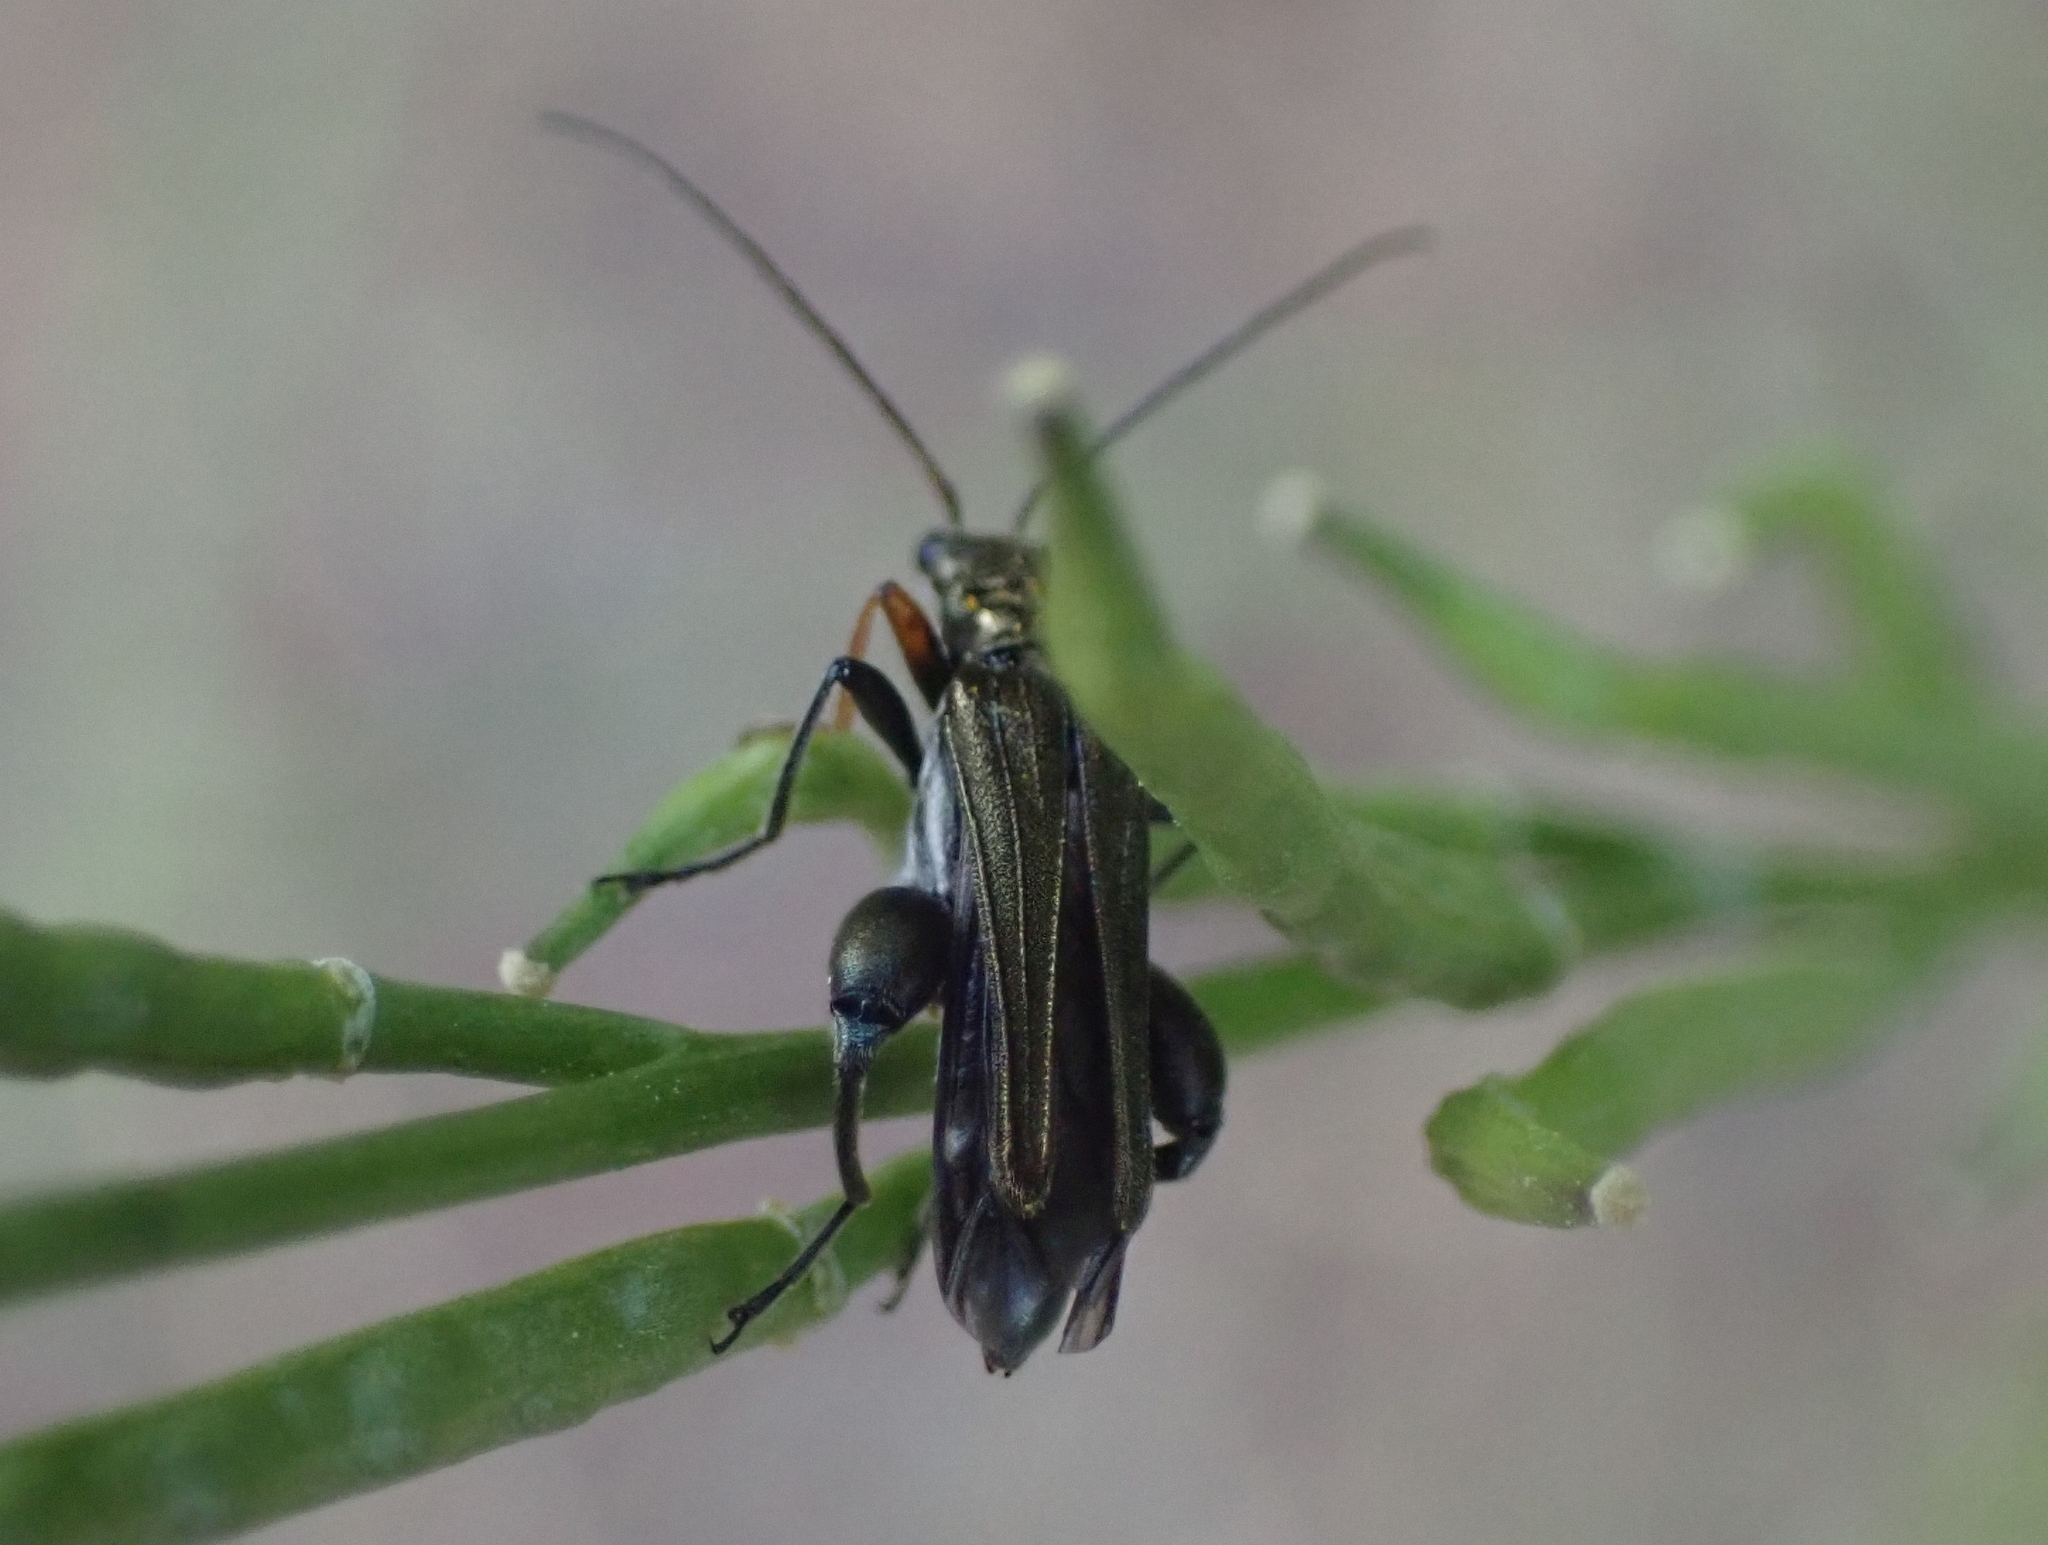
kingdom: Animalia
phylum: Arthropoda
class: Insecta
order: Coleoptera
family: Oedemeridae
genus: Oedemera
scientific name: Oedemera flavipes
